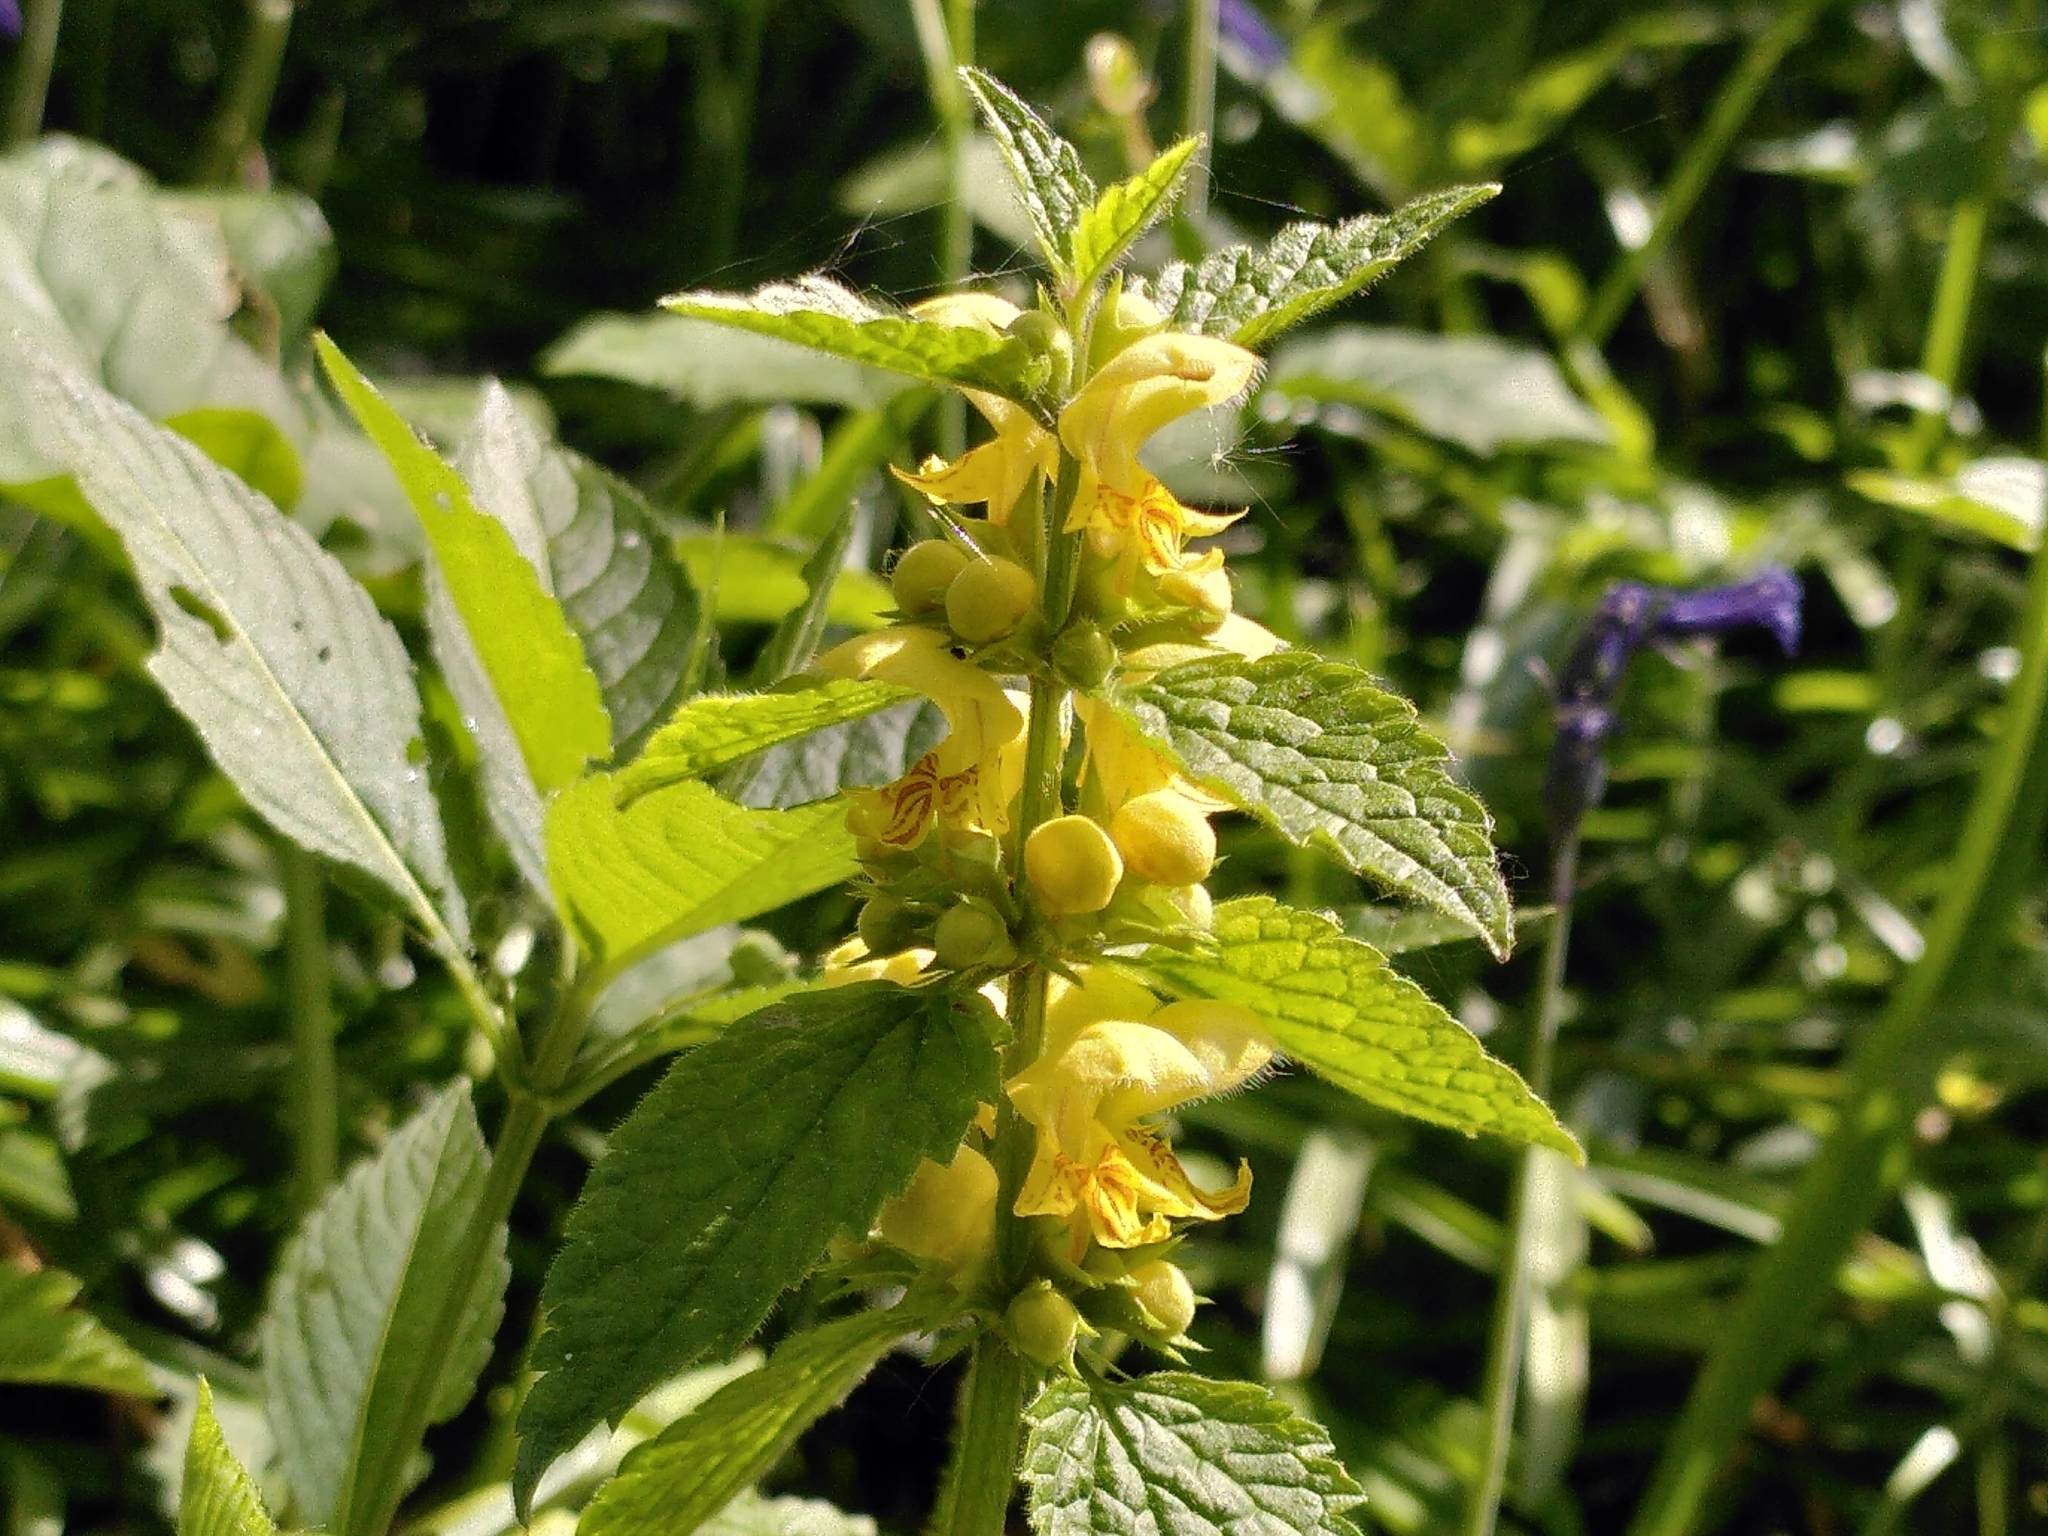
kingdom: Plantae
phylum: Tracheophyta
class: Magnoliopsida
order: Lamiales
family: Lamiaceae
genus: Lamium
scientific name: Lamium galeobdolon
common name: Yellow archangel
